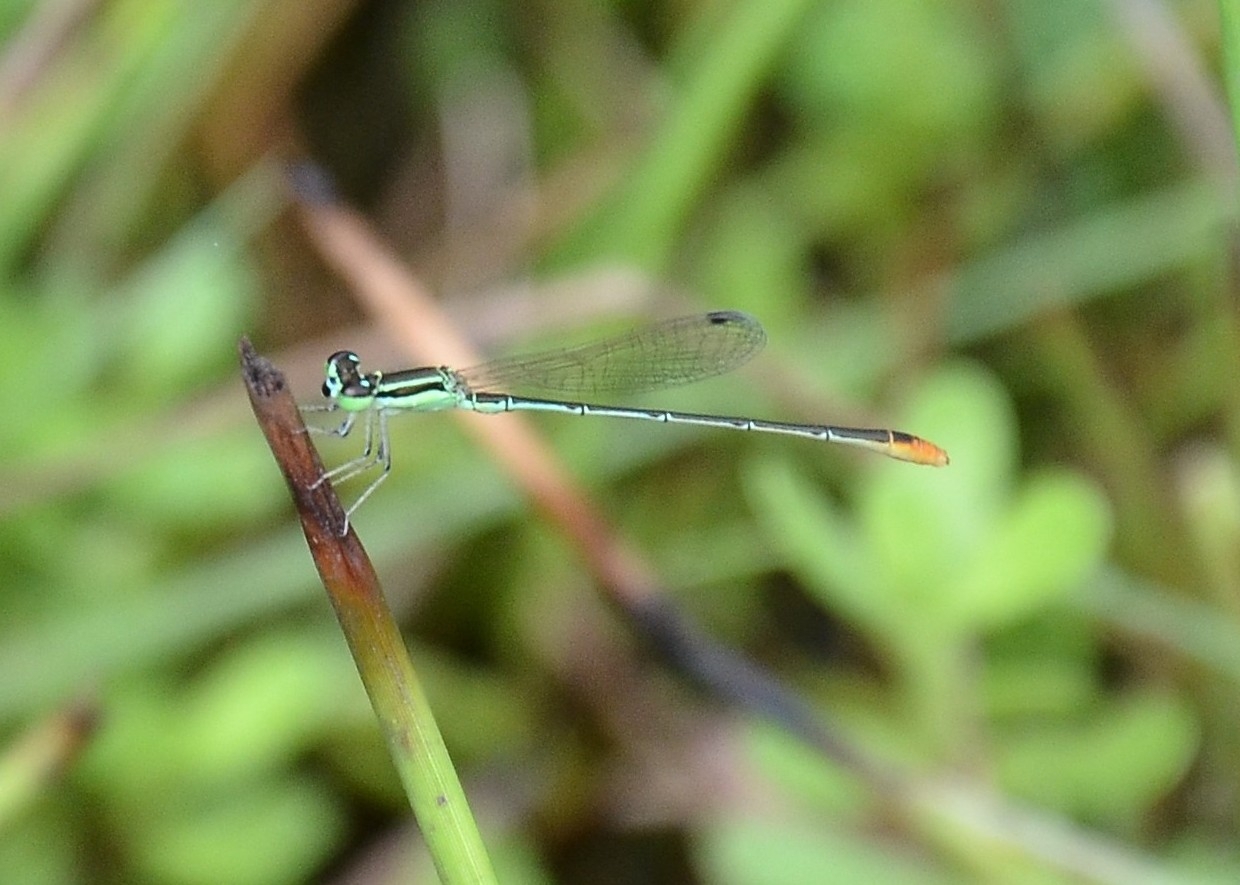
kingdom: Animalia
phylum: Arthropoda
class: Insecta
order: Odonata
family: Coenagrionidae
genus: Agriocnemis
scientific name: Agriocnemis pygmaea
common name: Pygmy wisp
